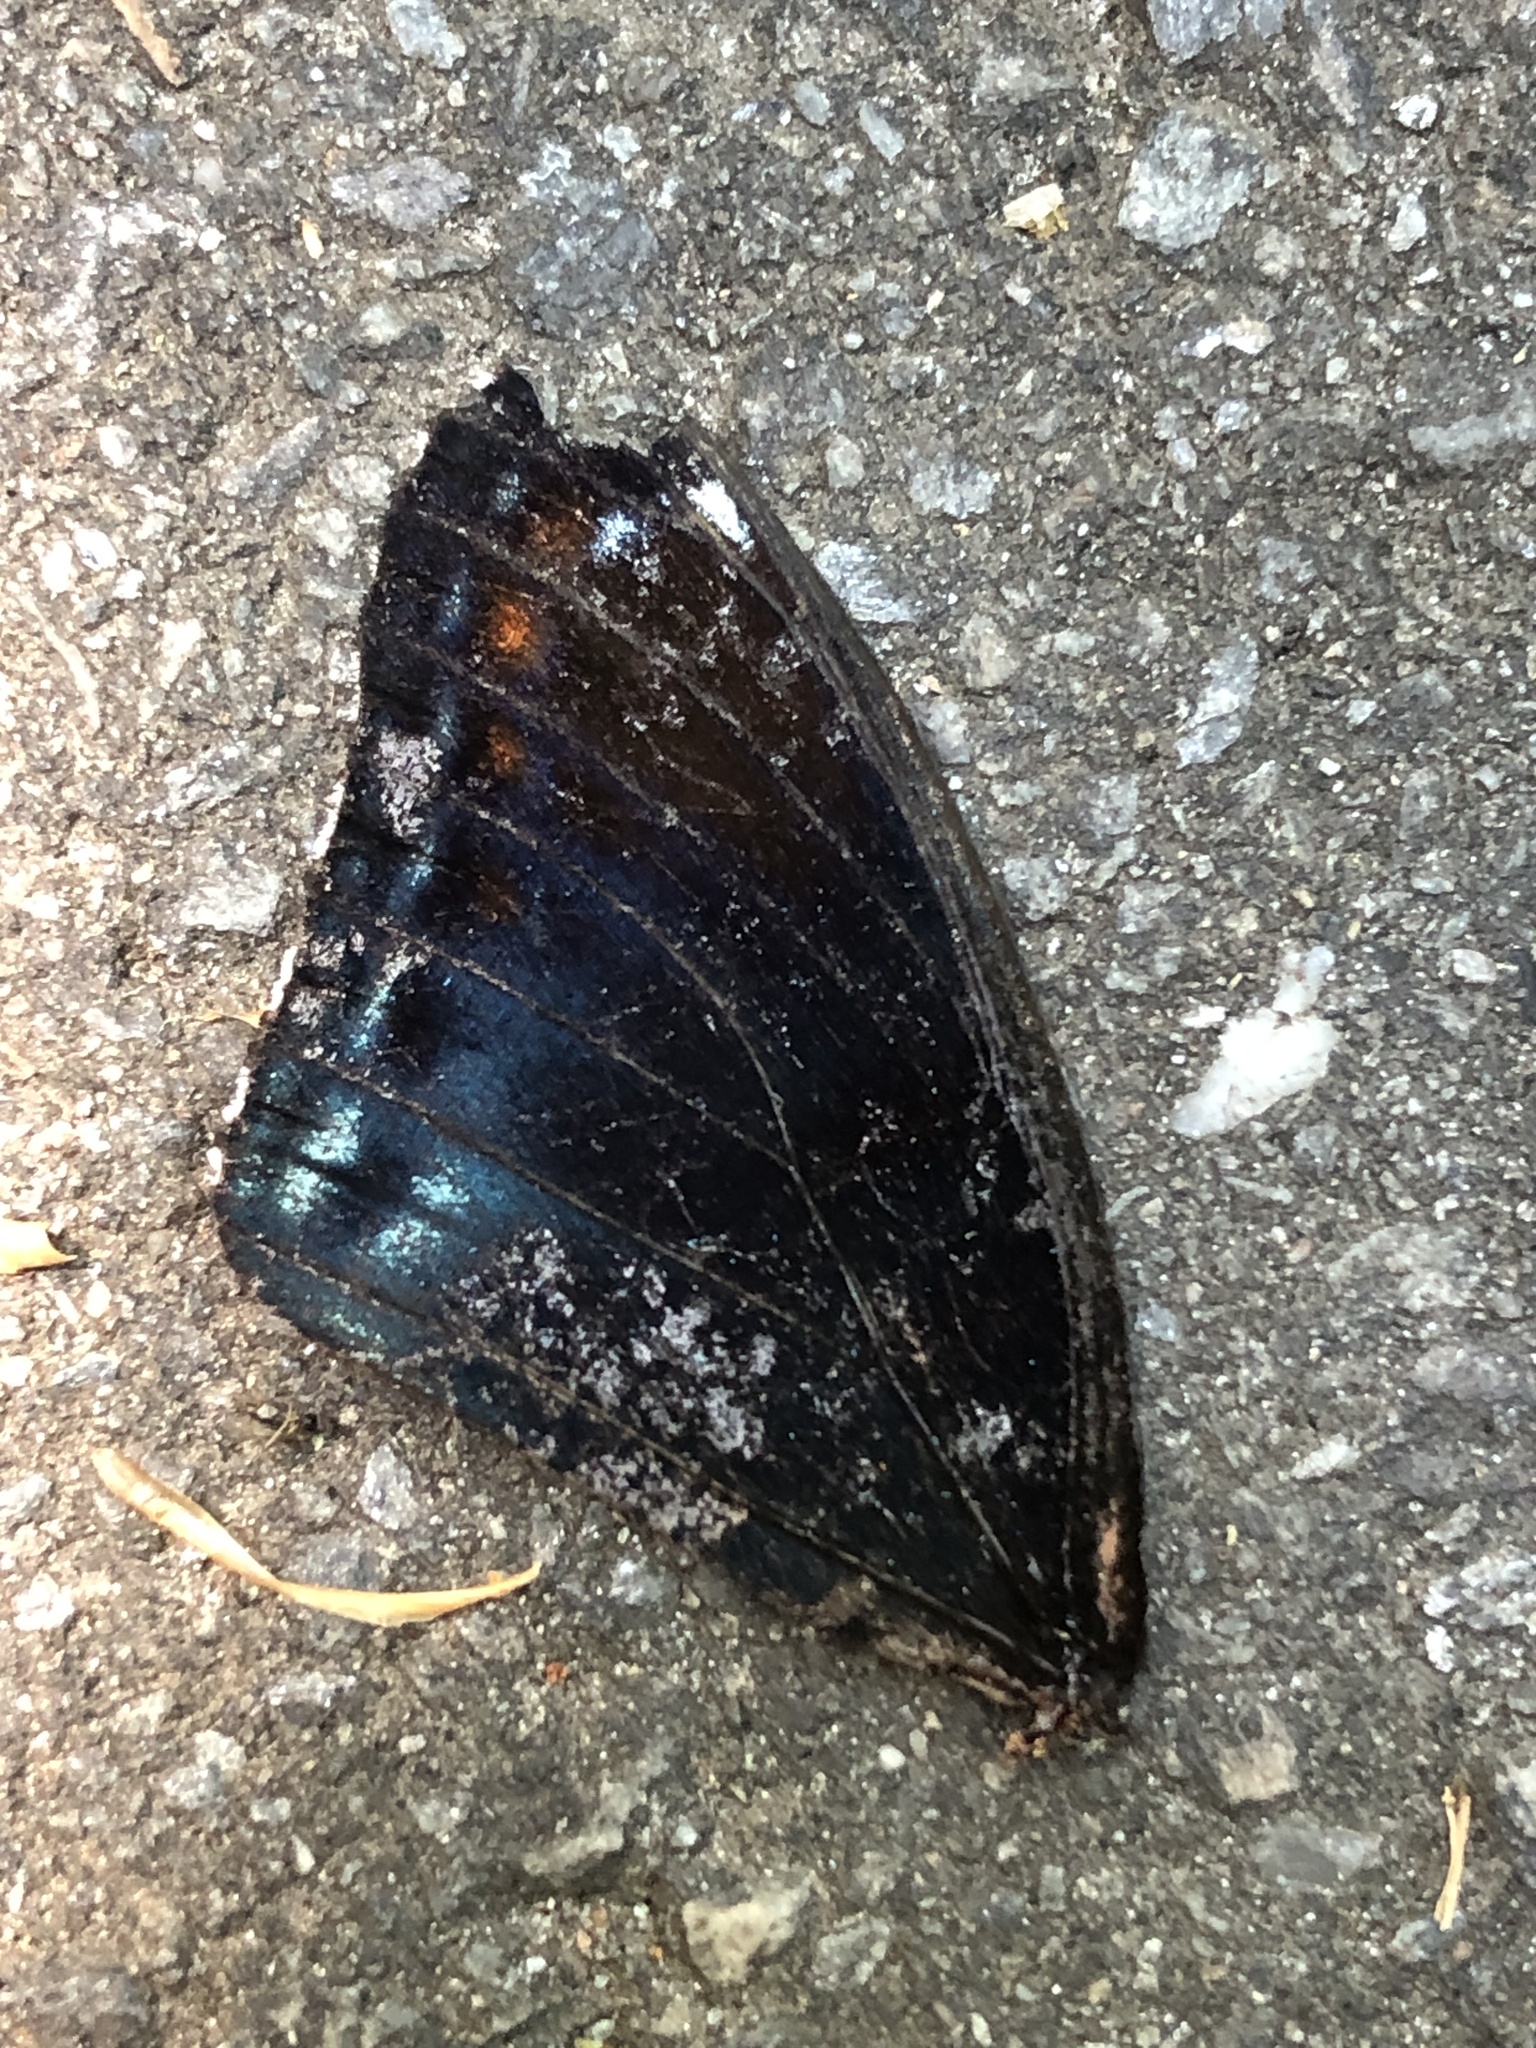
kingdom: Animalia
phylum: Arthropoda
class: Insecta
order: Lepidoptera
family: Nymphalidae
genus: Limenitis
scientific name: Limenitis astyanax
